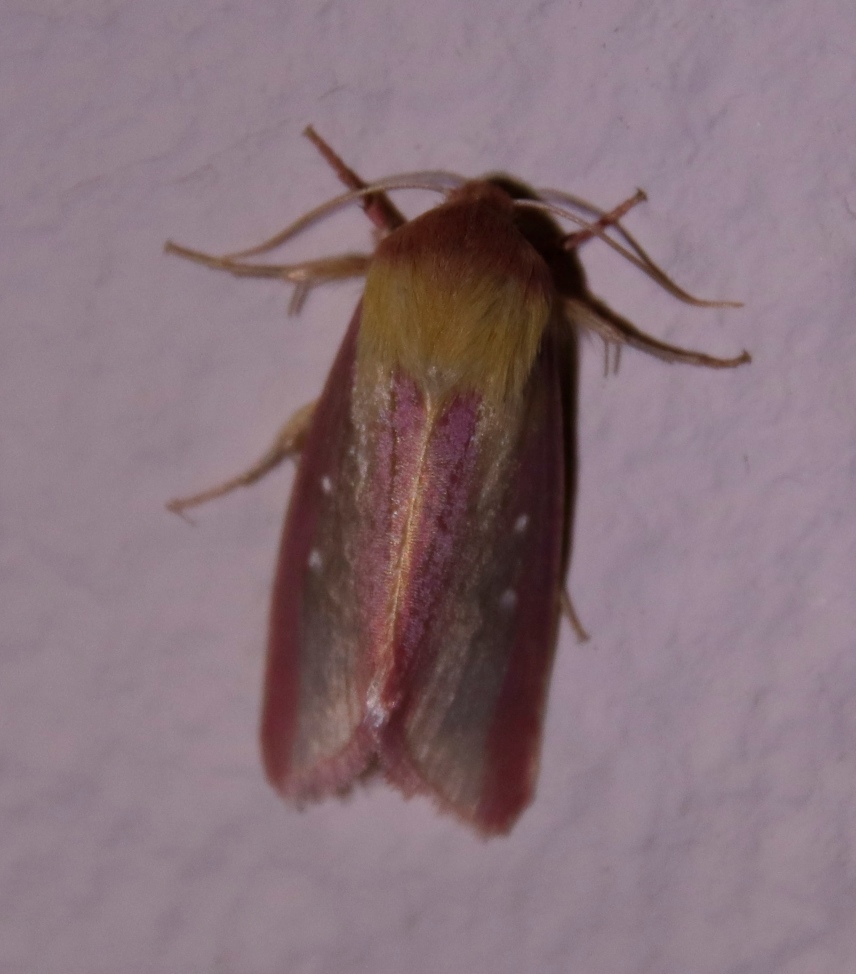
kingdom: Animalia
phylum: Arthropoda
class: Insecta
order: Lepidoptera
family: Noctuidae
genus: Timora
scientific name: Timora disticta
